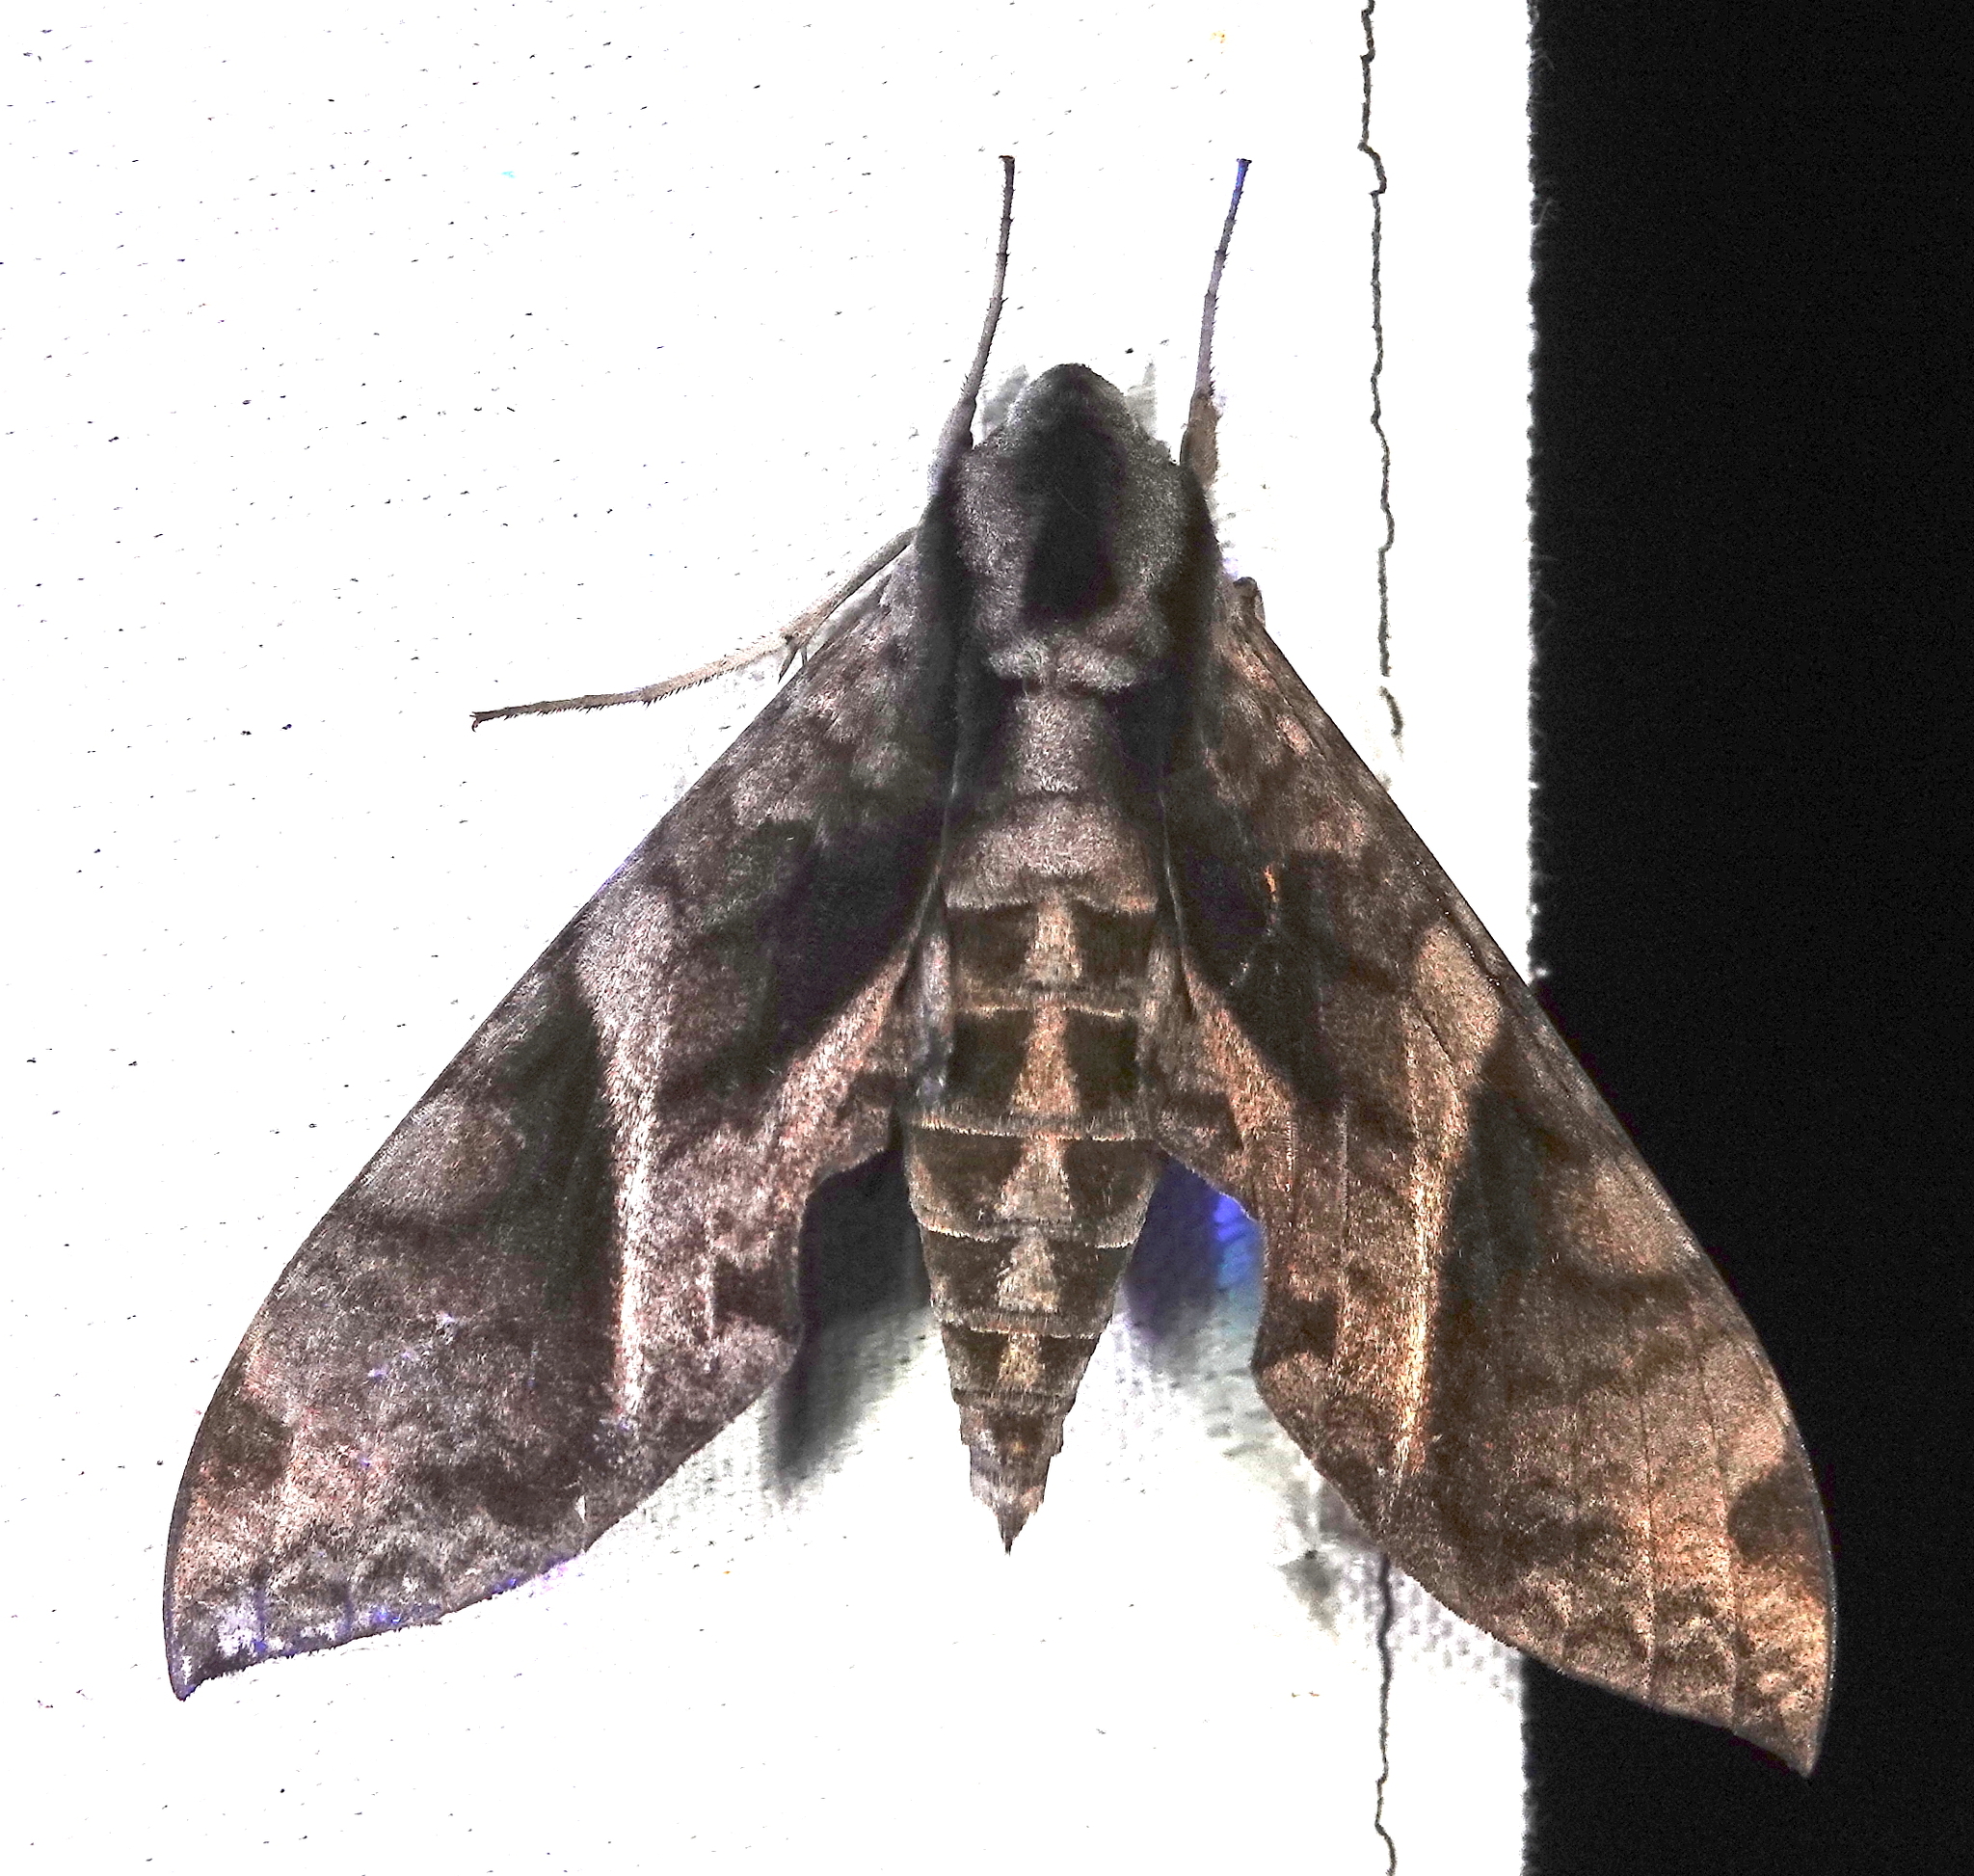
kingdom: Animalia
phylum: Arthropoda
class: Insecta
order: Lepidoptera
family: Sphingidae
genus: Eumorpha
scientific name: Eumorpha cissi
